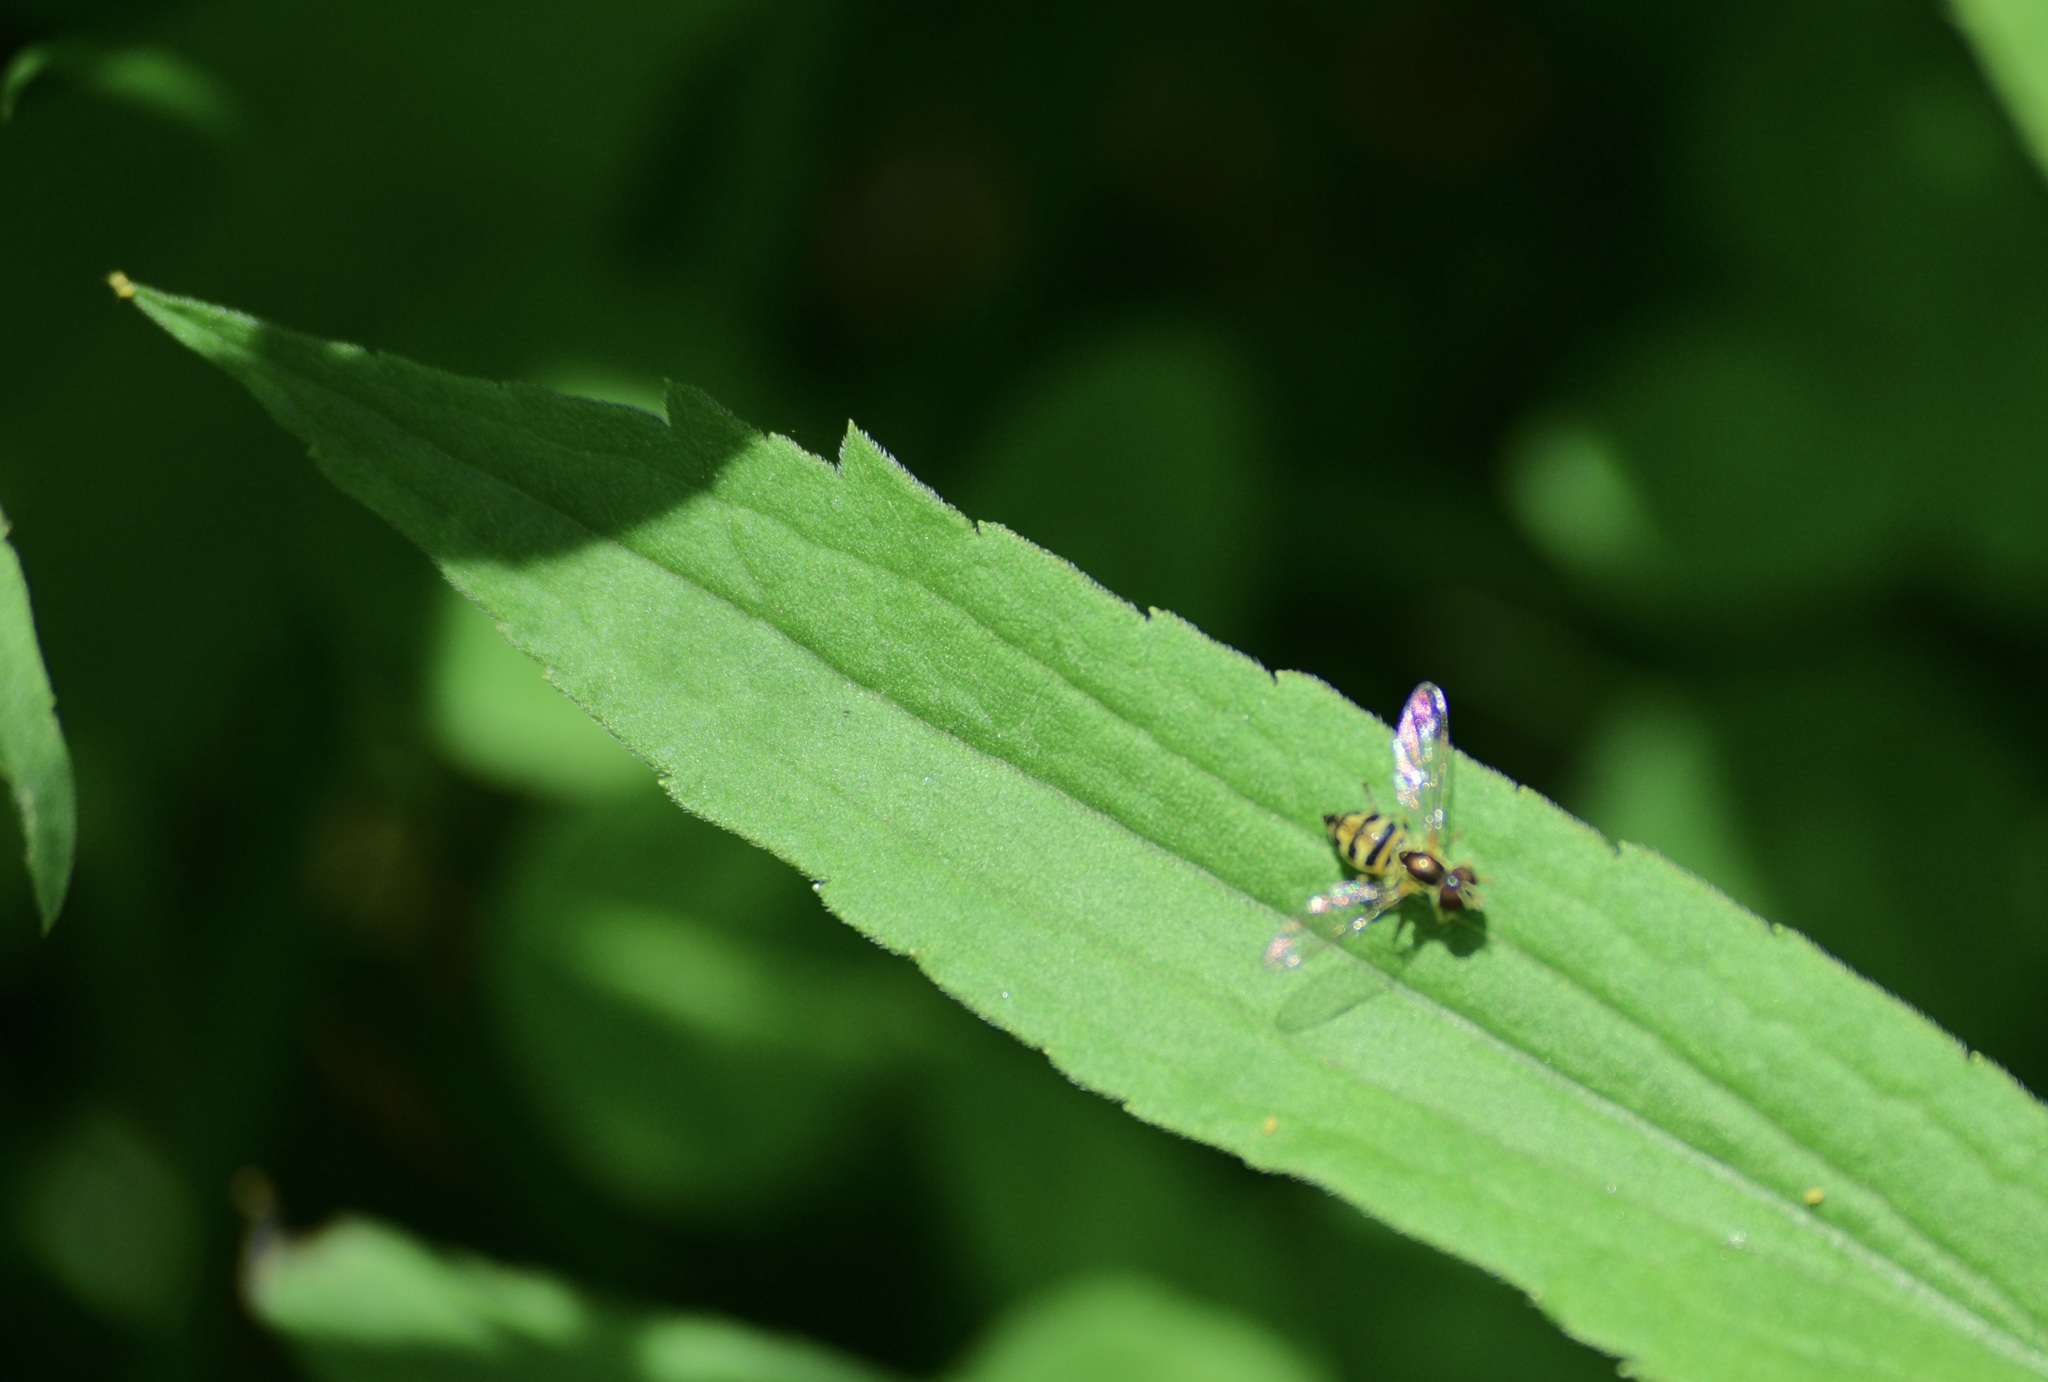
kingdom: Animalia
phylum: Arthropoda
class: Insecta
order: Diptera
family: Syrphidae
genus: Toxomerus
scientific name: Toxomerus geminatus
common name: Eastern calligrapher
